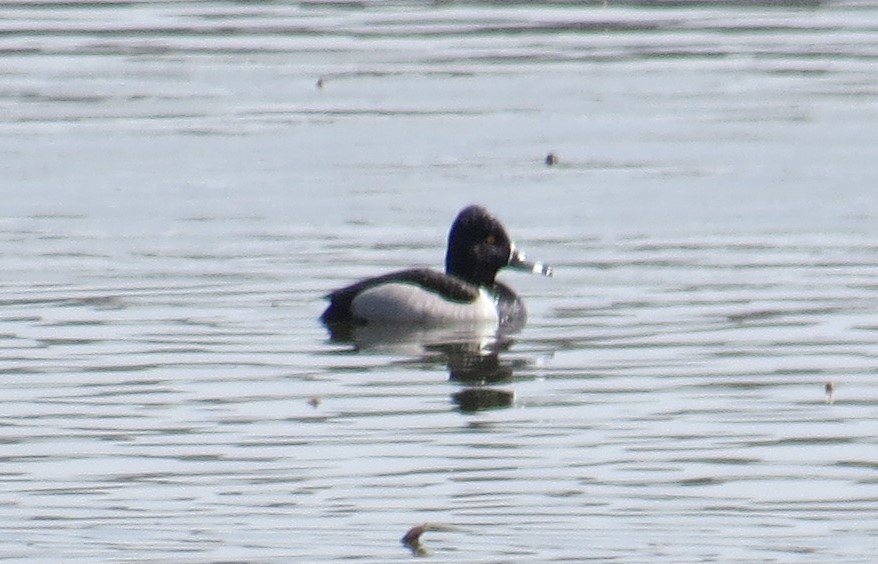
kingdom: Animalia
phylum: Chordata
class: Aves
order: Anseriformes
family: Anatidae
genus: Aythya
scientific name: Aythya collaris
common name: Ring-necked duck
